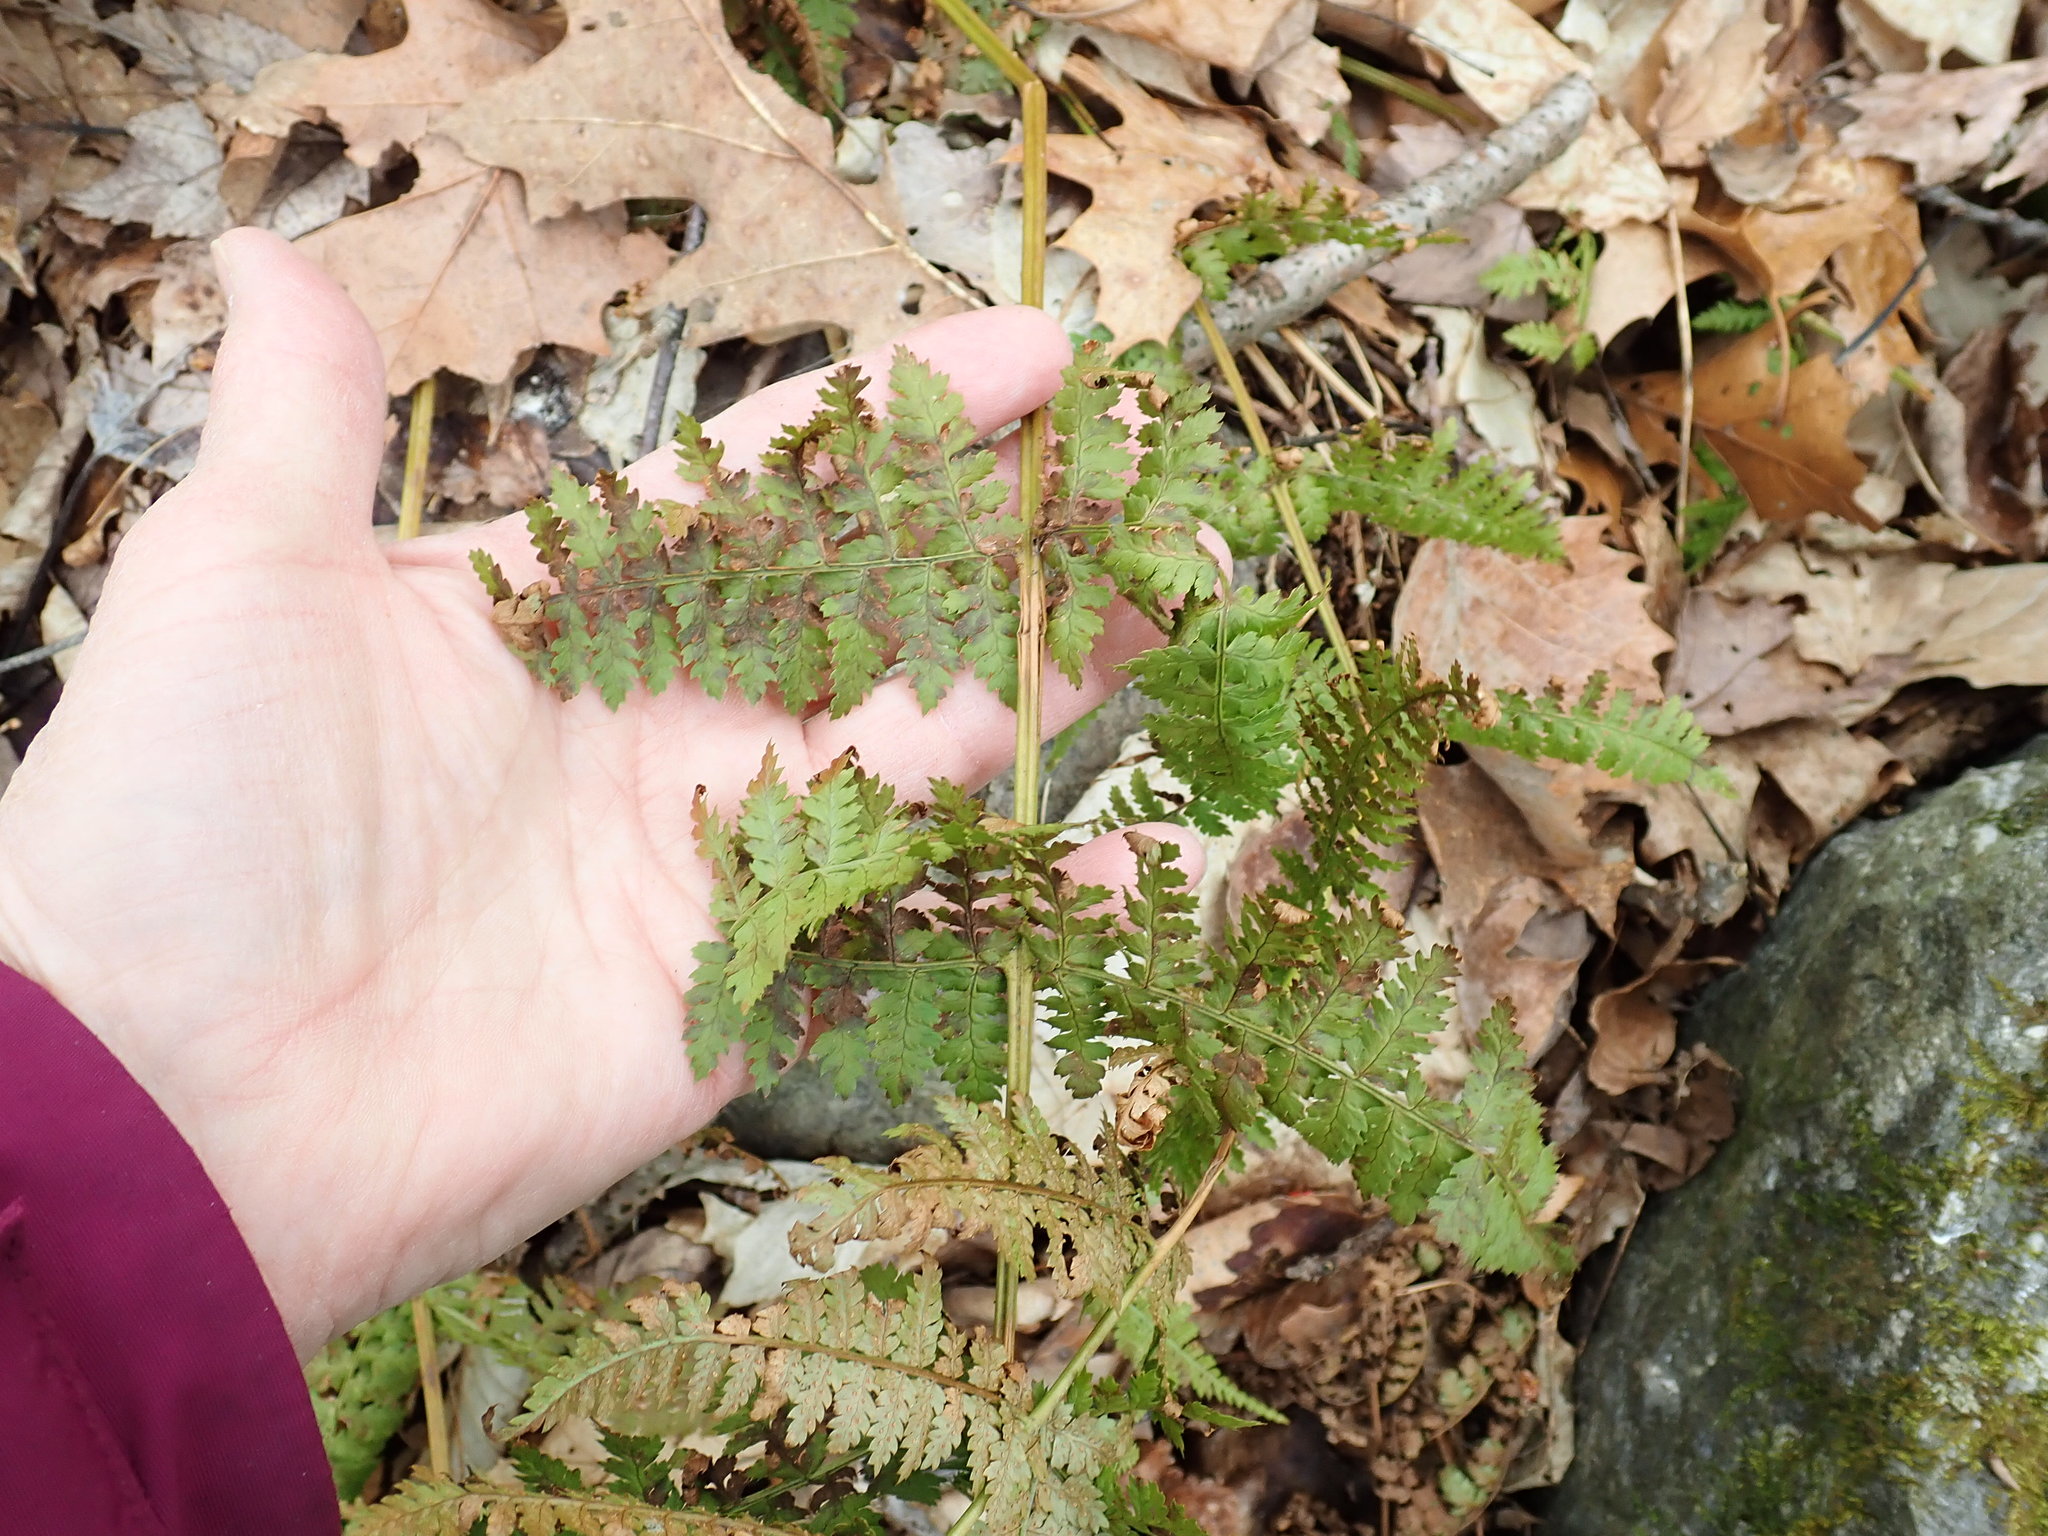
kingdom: Plantae
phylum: Tracheophyta
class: Polypodiopsida
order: Polypodiales
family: Dryopteridaceae
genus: Dryopteris
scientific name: Dryopteris intermedia
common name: Evergreen wood fern
